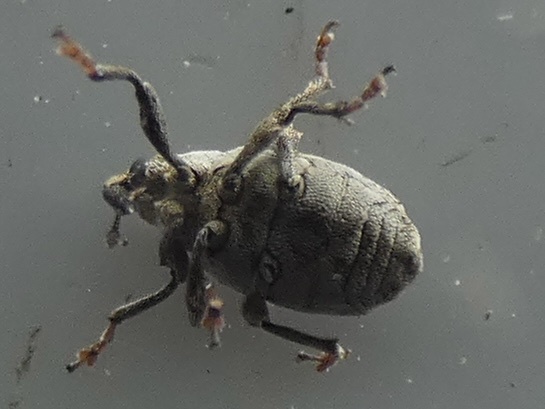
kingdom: Animalia
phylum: Arthropoda
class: Insecta
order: Coleoptera
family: Curculionidae
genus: Ceuthorhynchus
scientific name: Ceuthorhynchus angulosus
